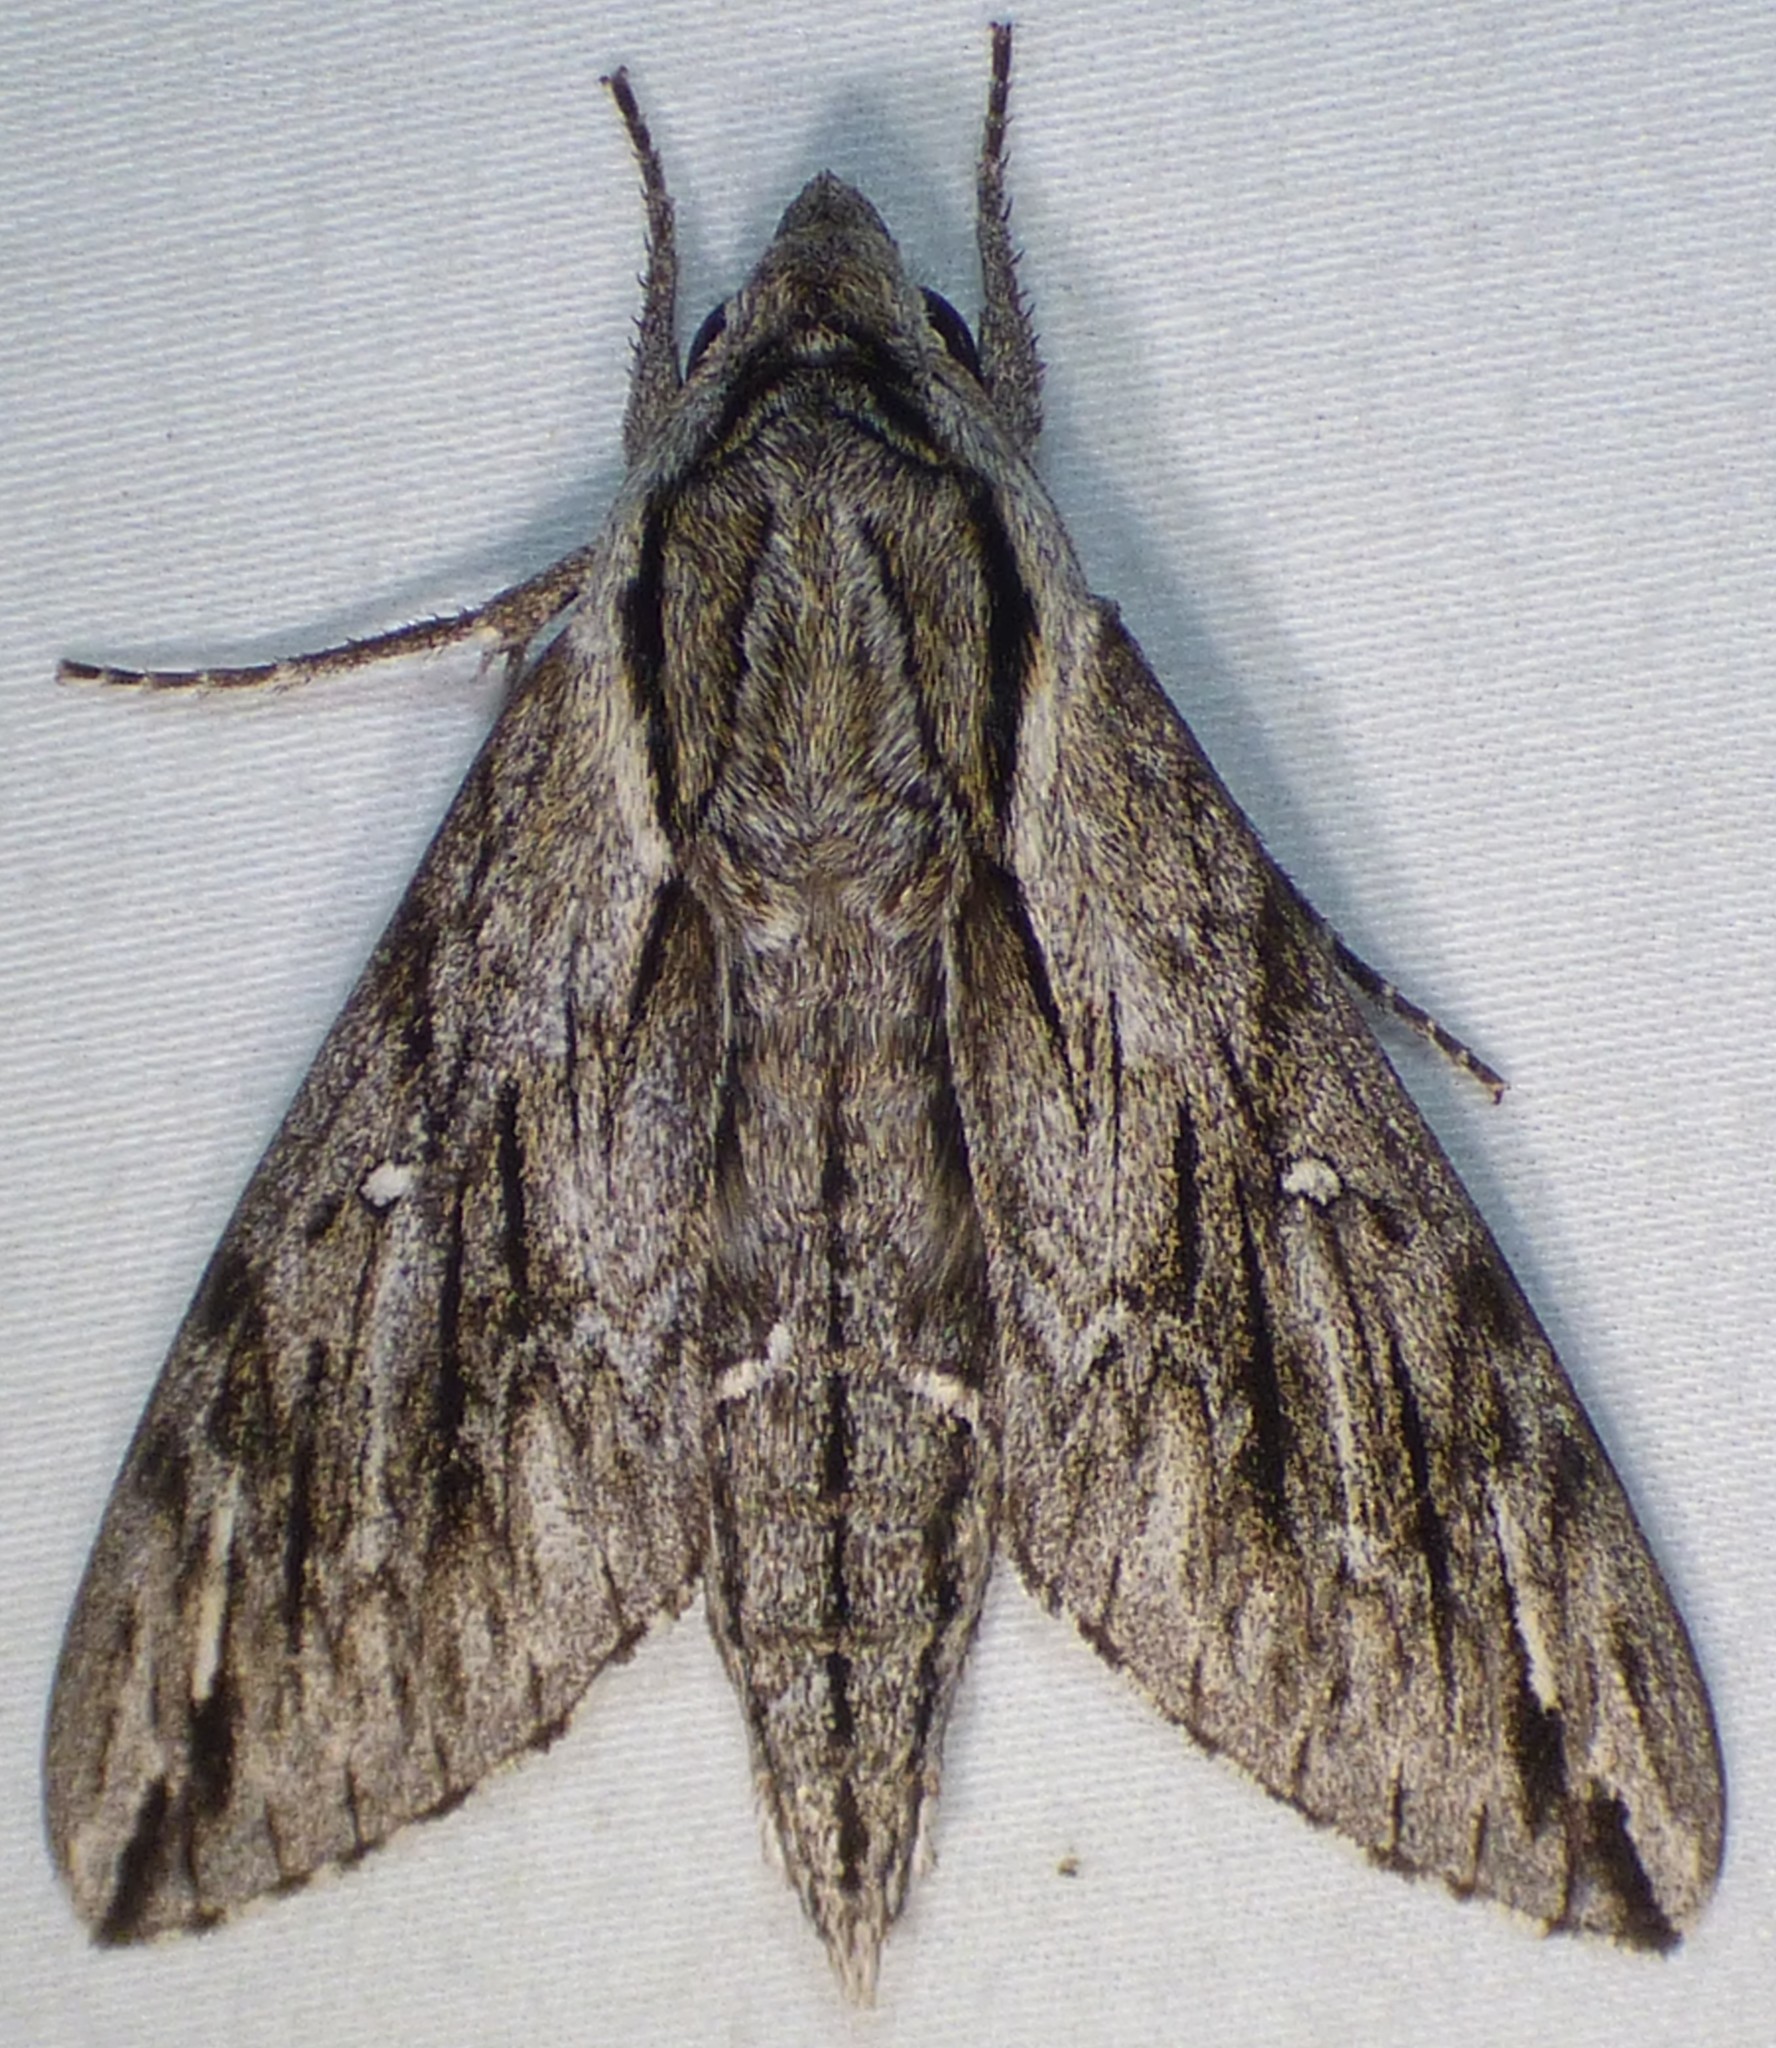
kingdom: Animalia
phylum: Arthropoda
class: Insecta
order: Lepidoptera
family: Sphingidae
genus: Paratrea
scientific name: Paratrea plebeja
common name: Plebian sphinx
